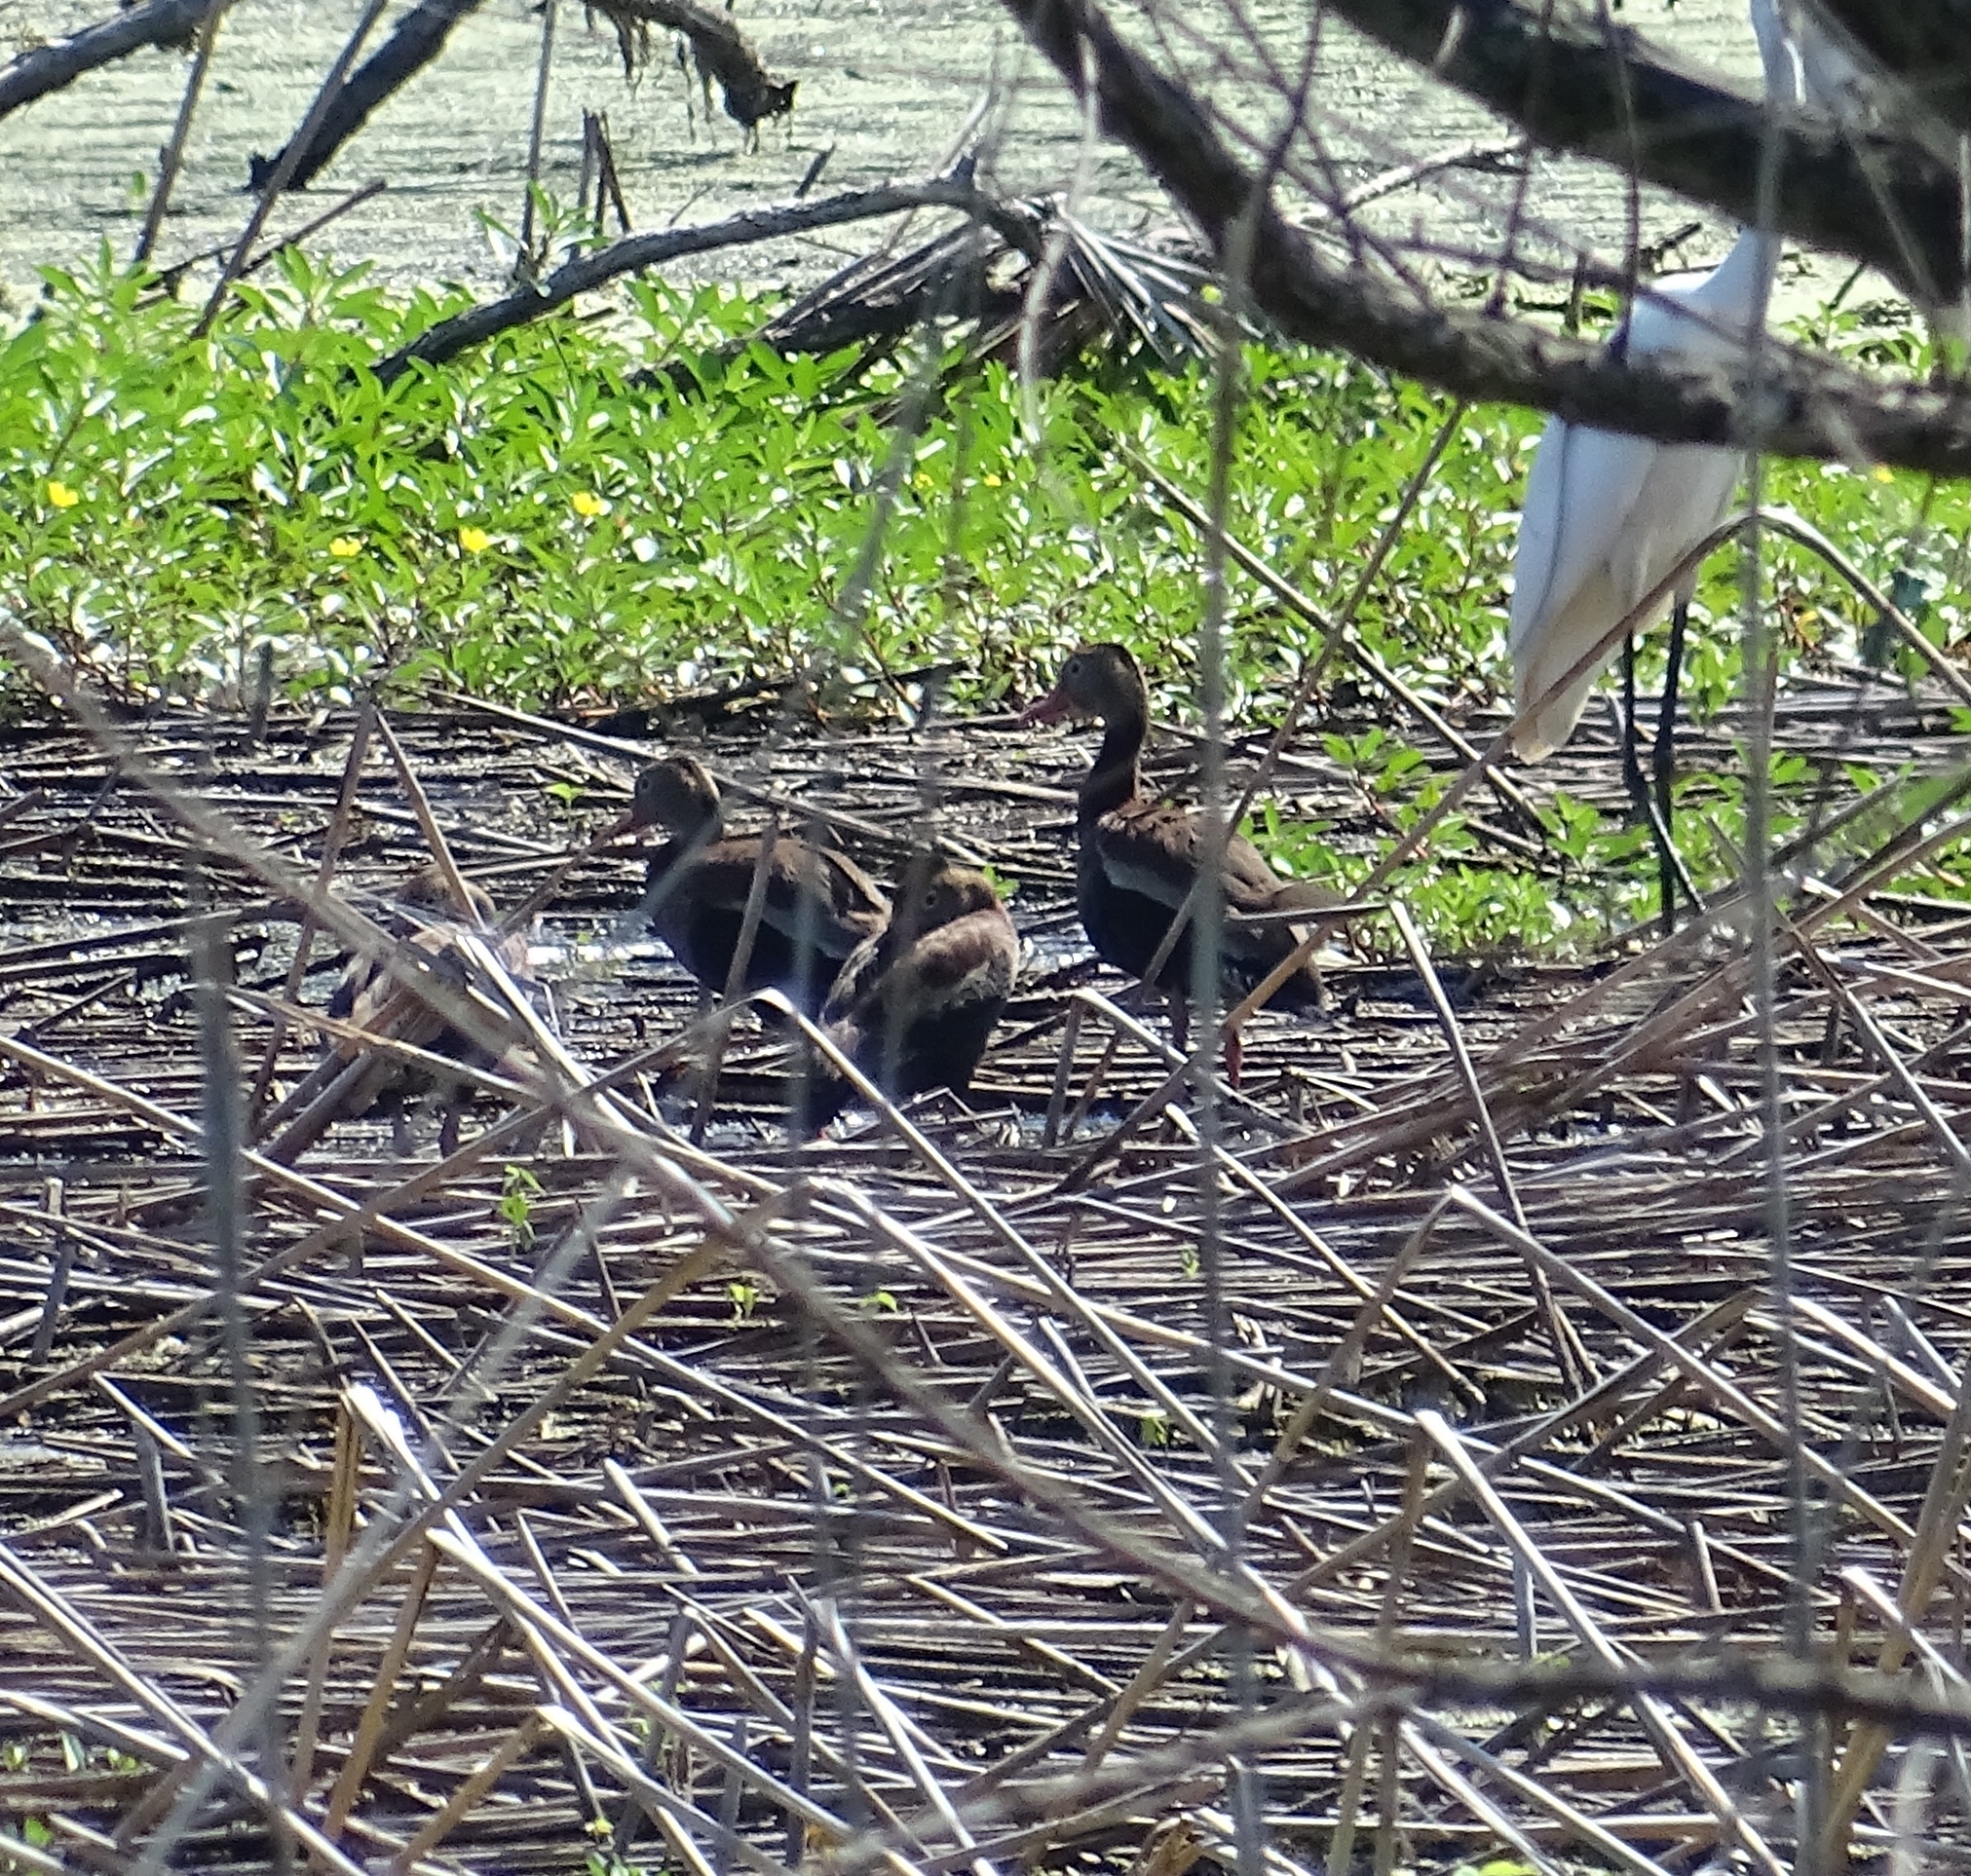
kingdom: Animalia
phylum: Chordata
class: Aves
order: Anseriformes
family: Anatidae
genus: Dendrocygna
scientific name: Dendrocygna autumnalis
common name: Black-bellied whistling duck
